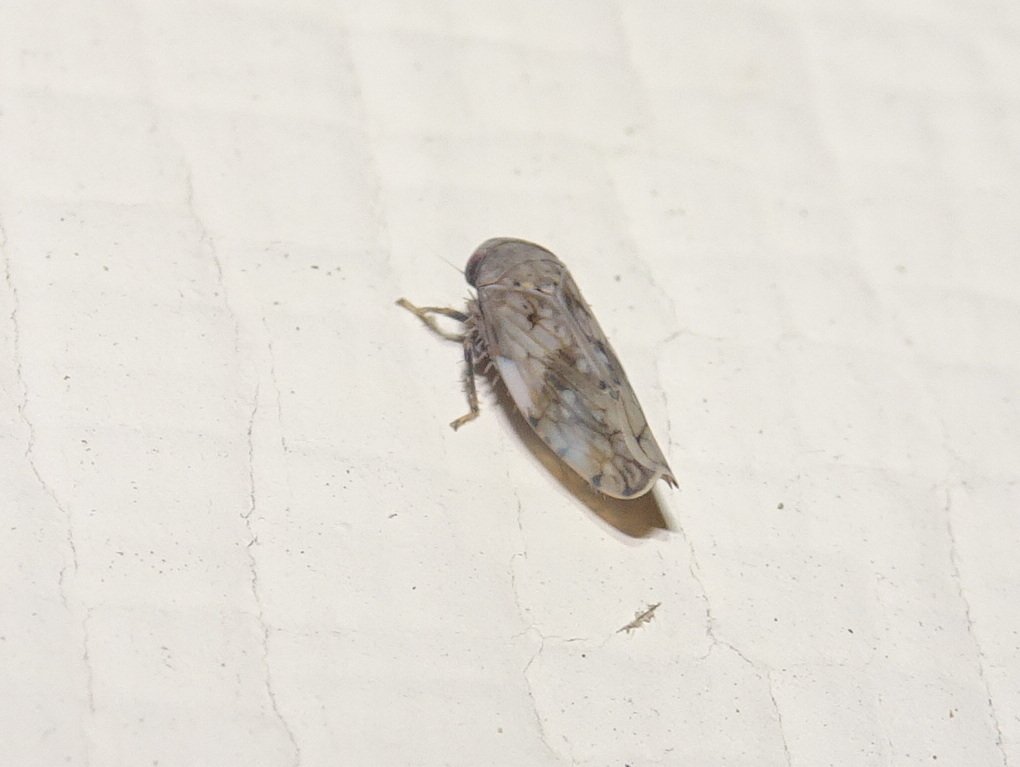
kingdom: Animalia
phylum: Arthropoda
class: Insecta
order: Hemiptera
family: Cicadellidae
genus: Menosoma
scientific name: Menosoma cinctum
